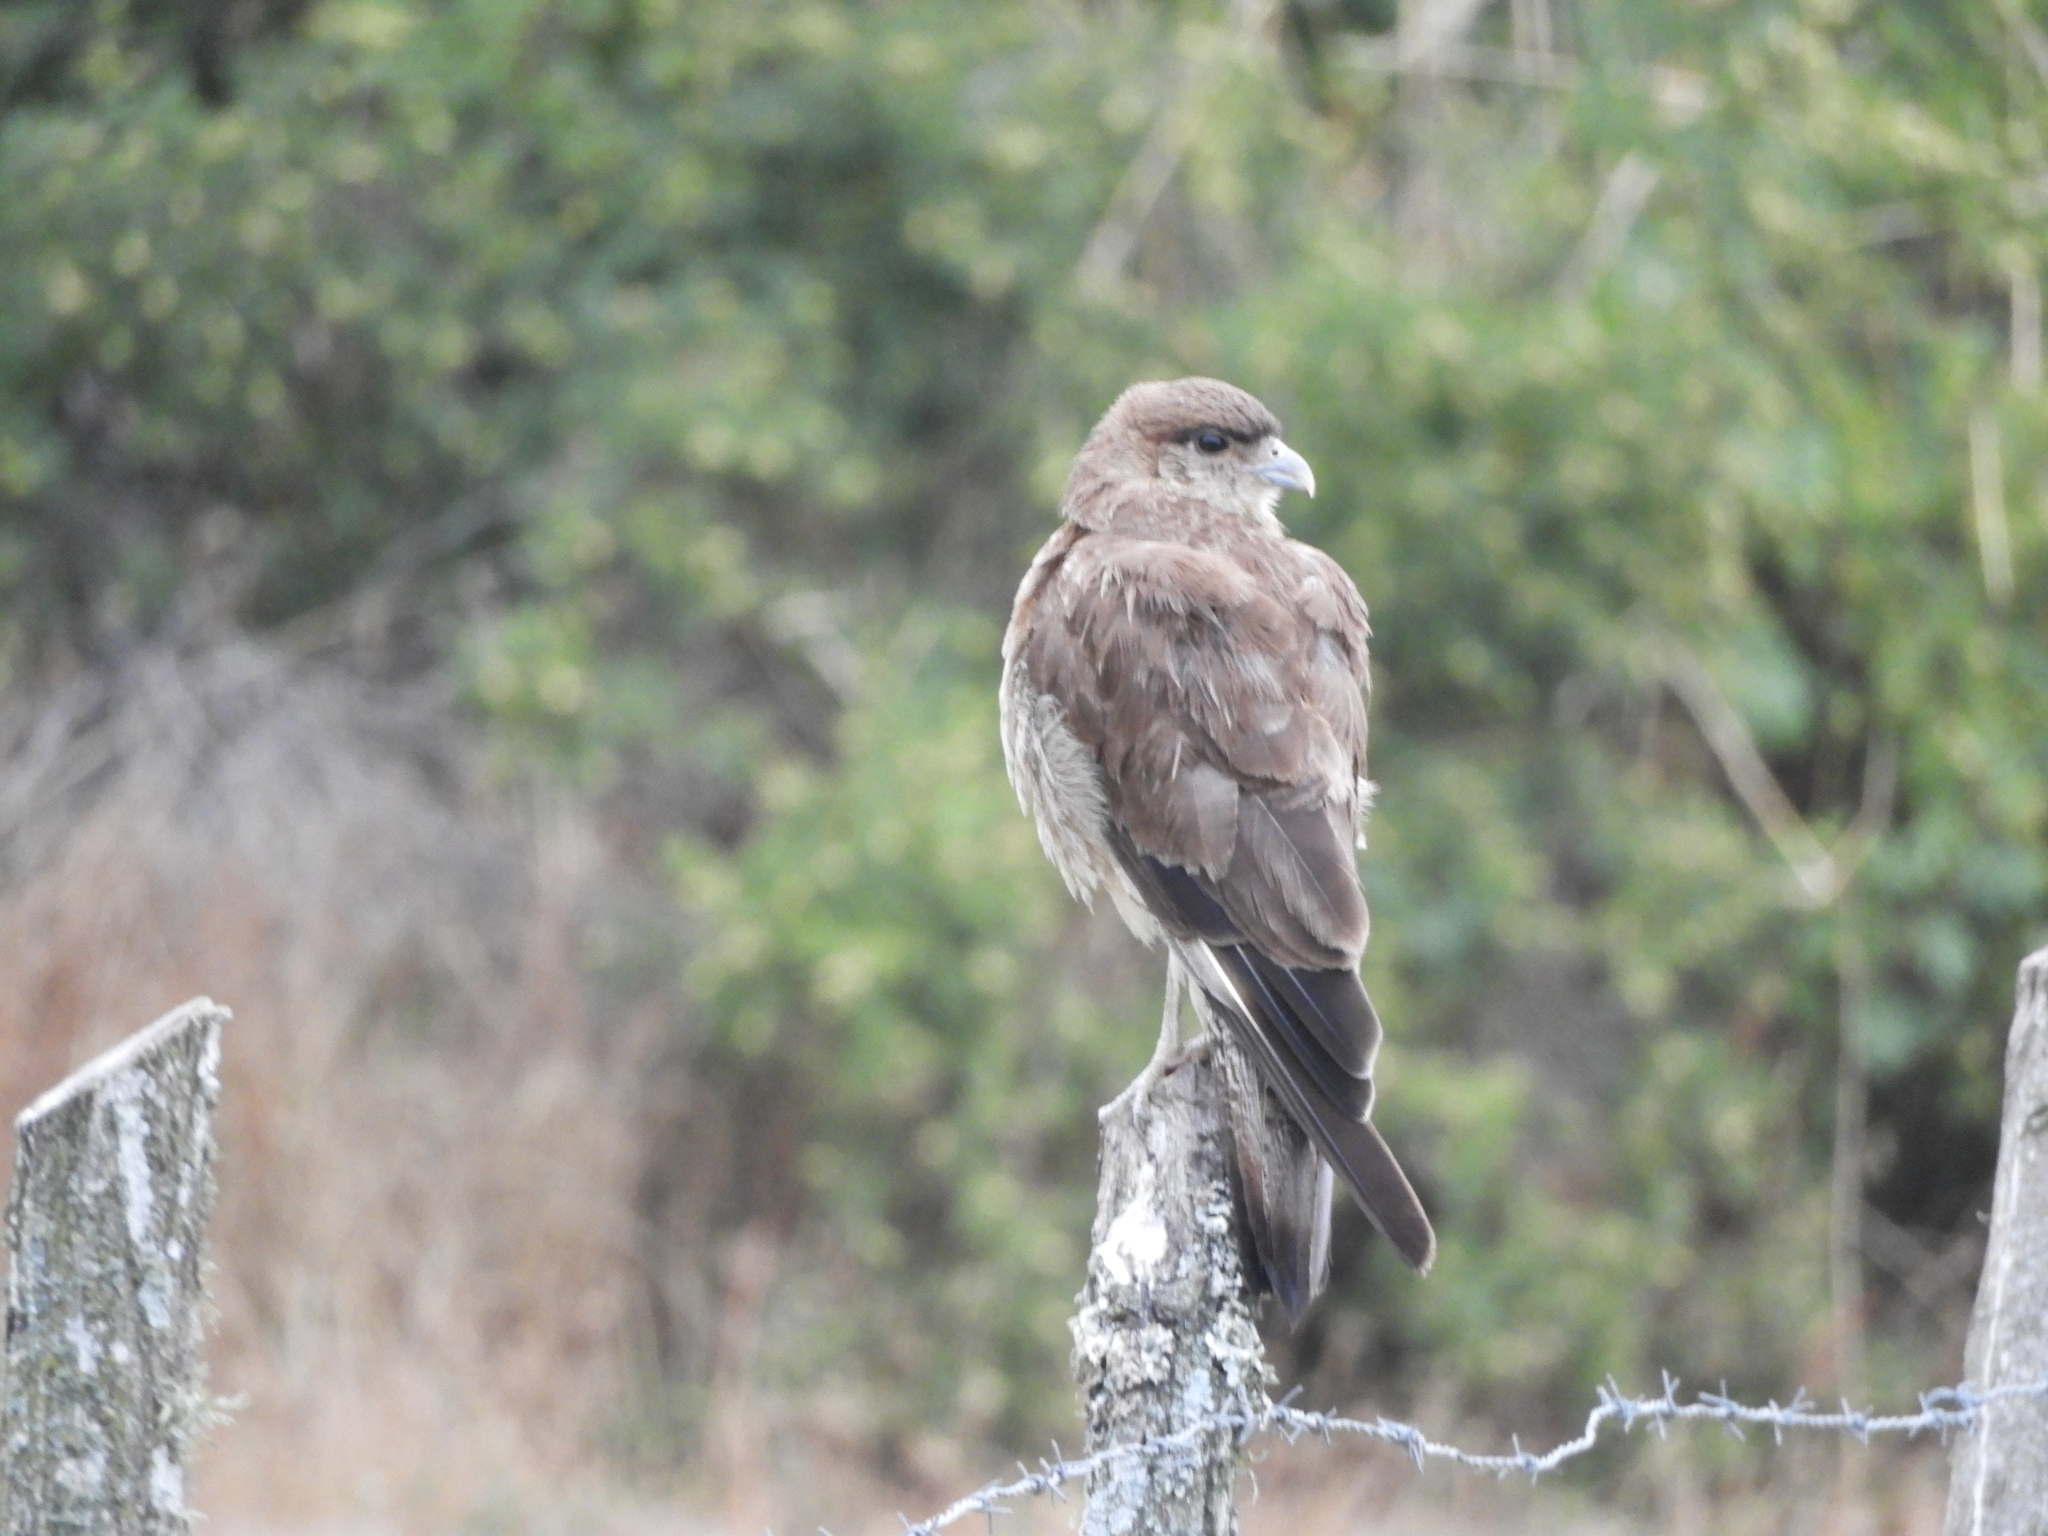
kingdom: Animalia
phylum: Chordata
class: Aves
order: Falconiformes
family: Falconidae
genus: Daptrius
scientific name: Daptrius
